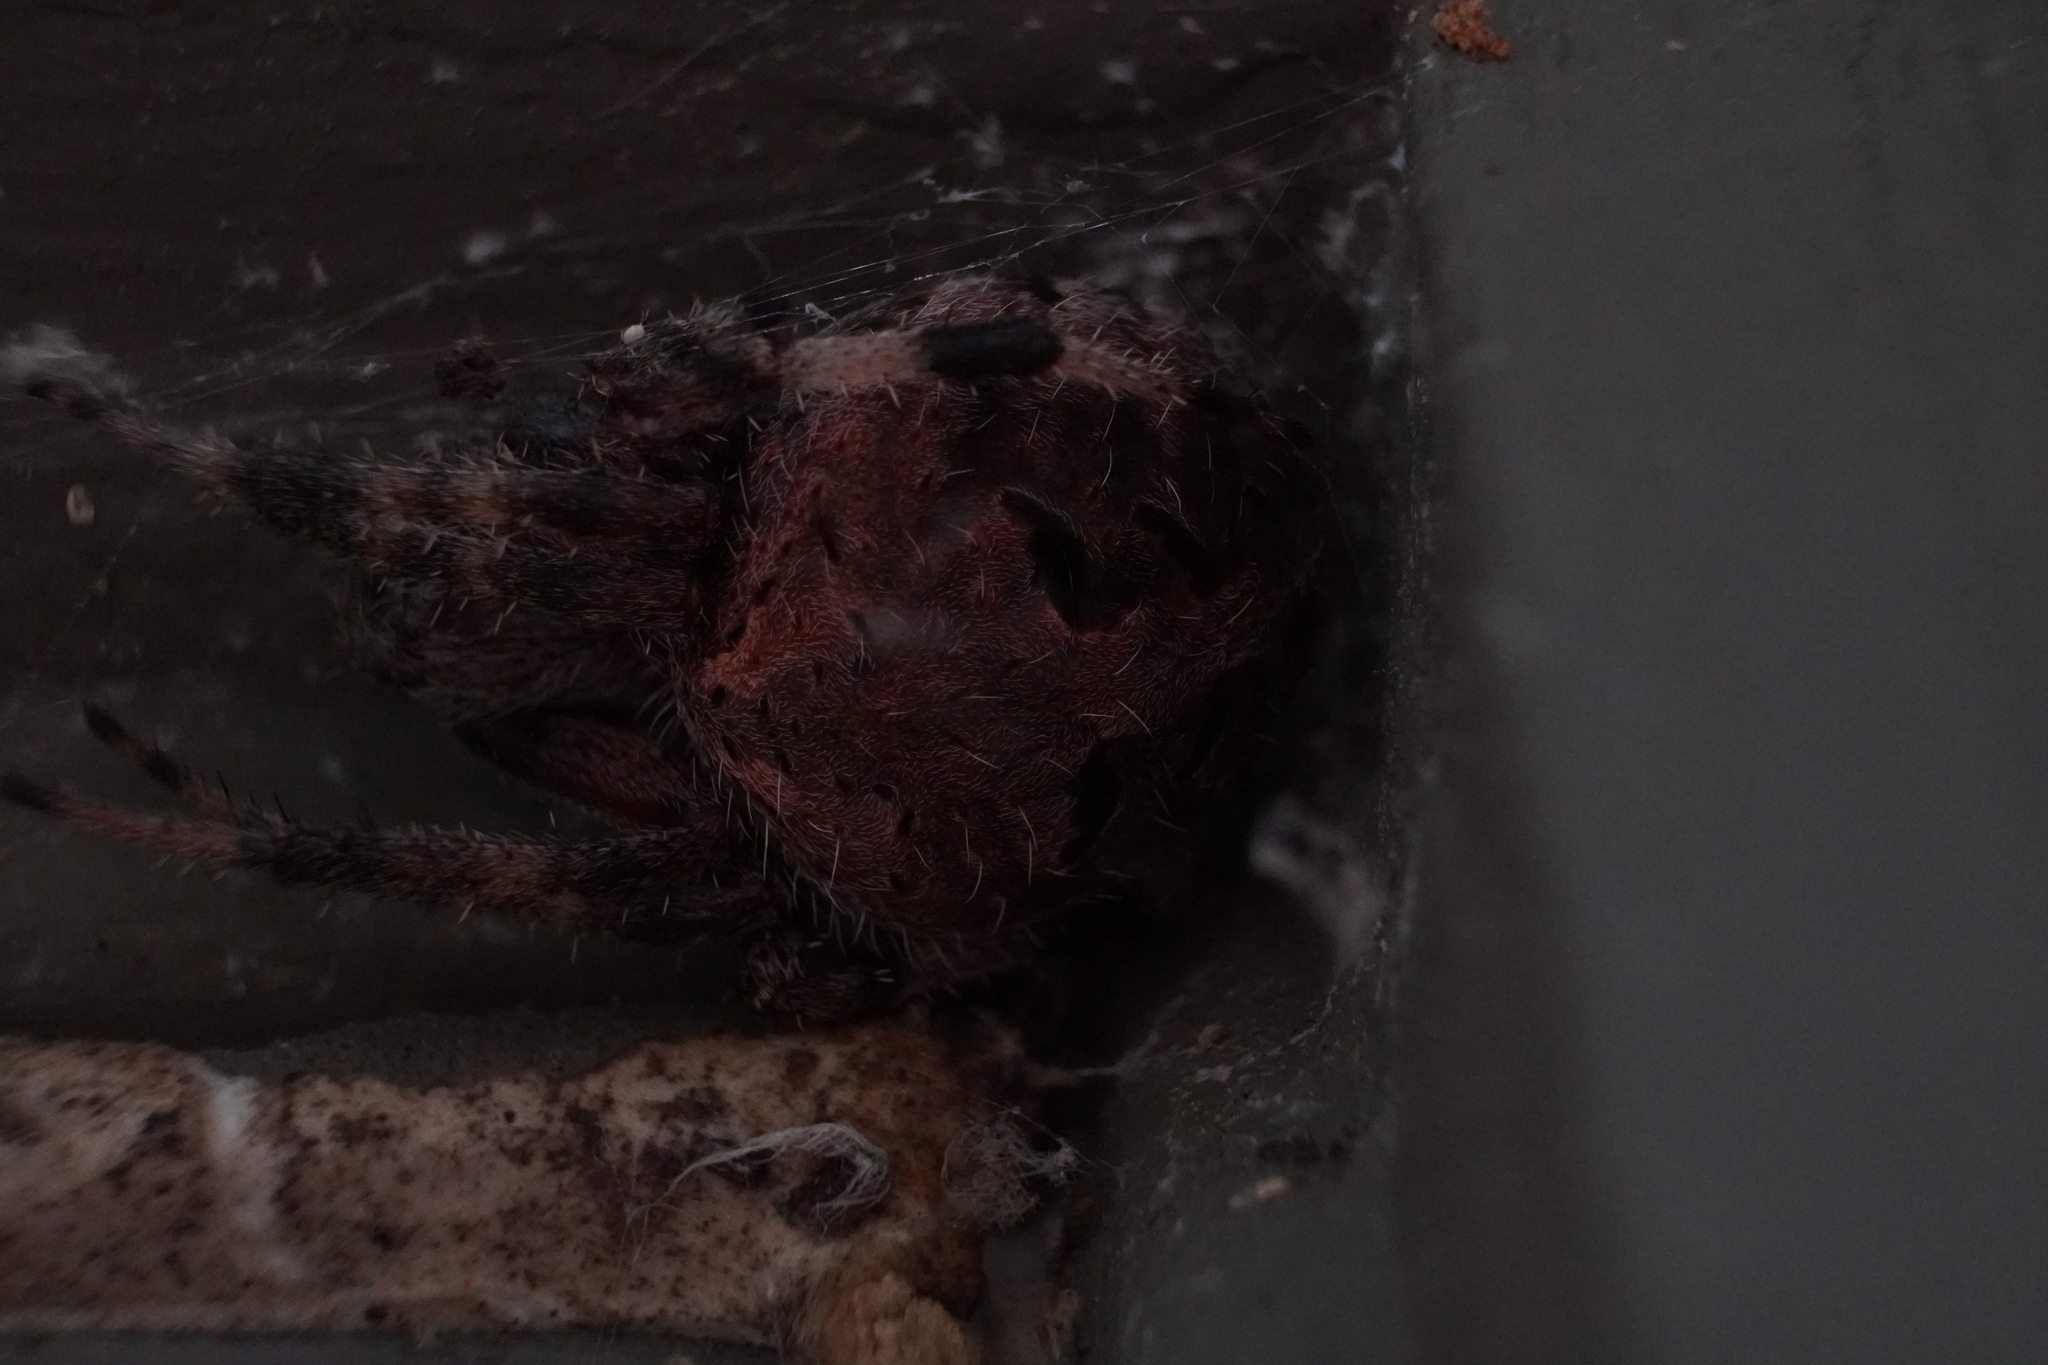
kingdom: Animalia
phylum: Arthropoda
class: Arachnida
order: Araneae
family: Araneidae
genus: Neoscona
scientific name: Neoscona crucifera
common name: Spotted orbweaver
